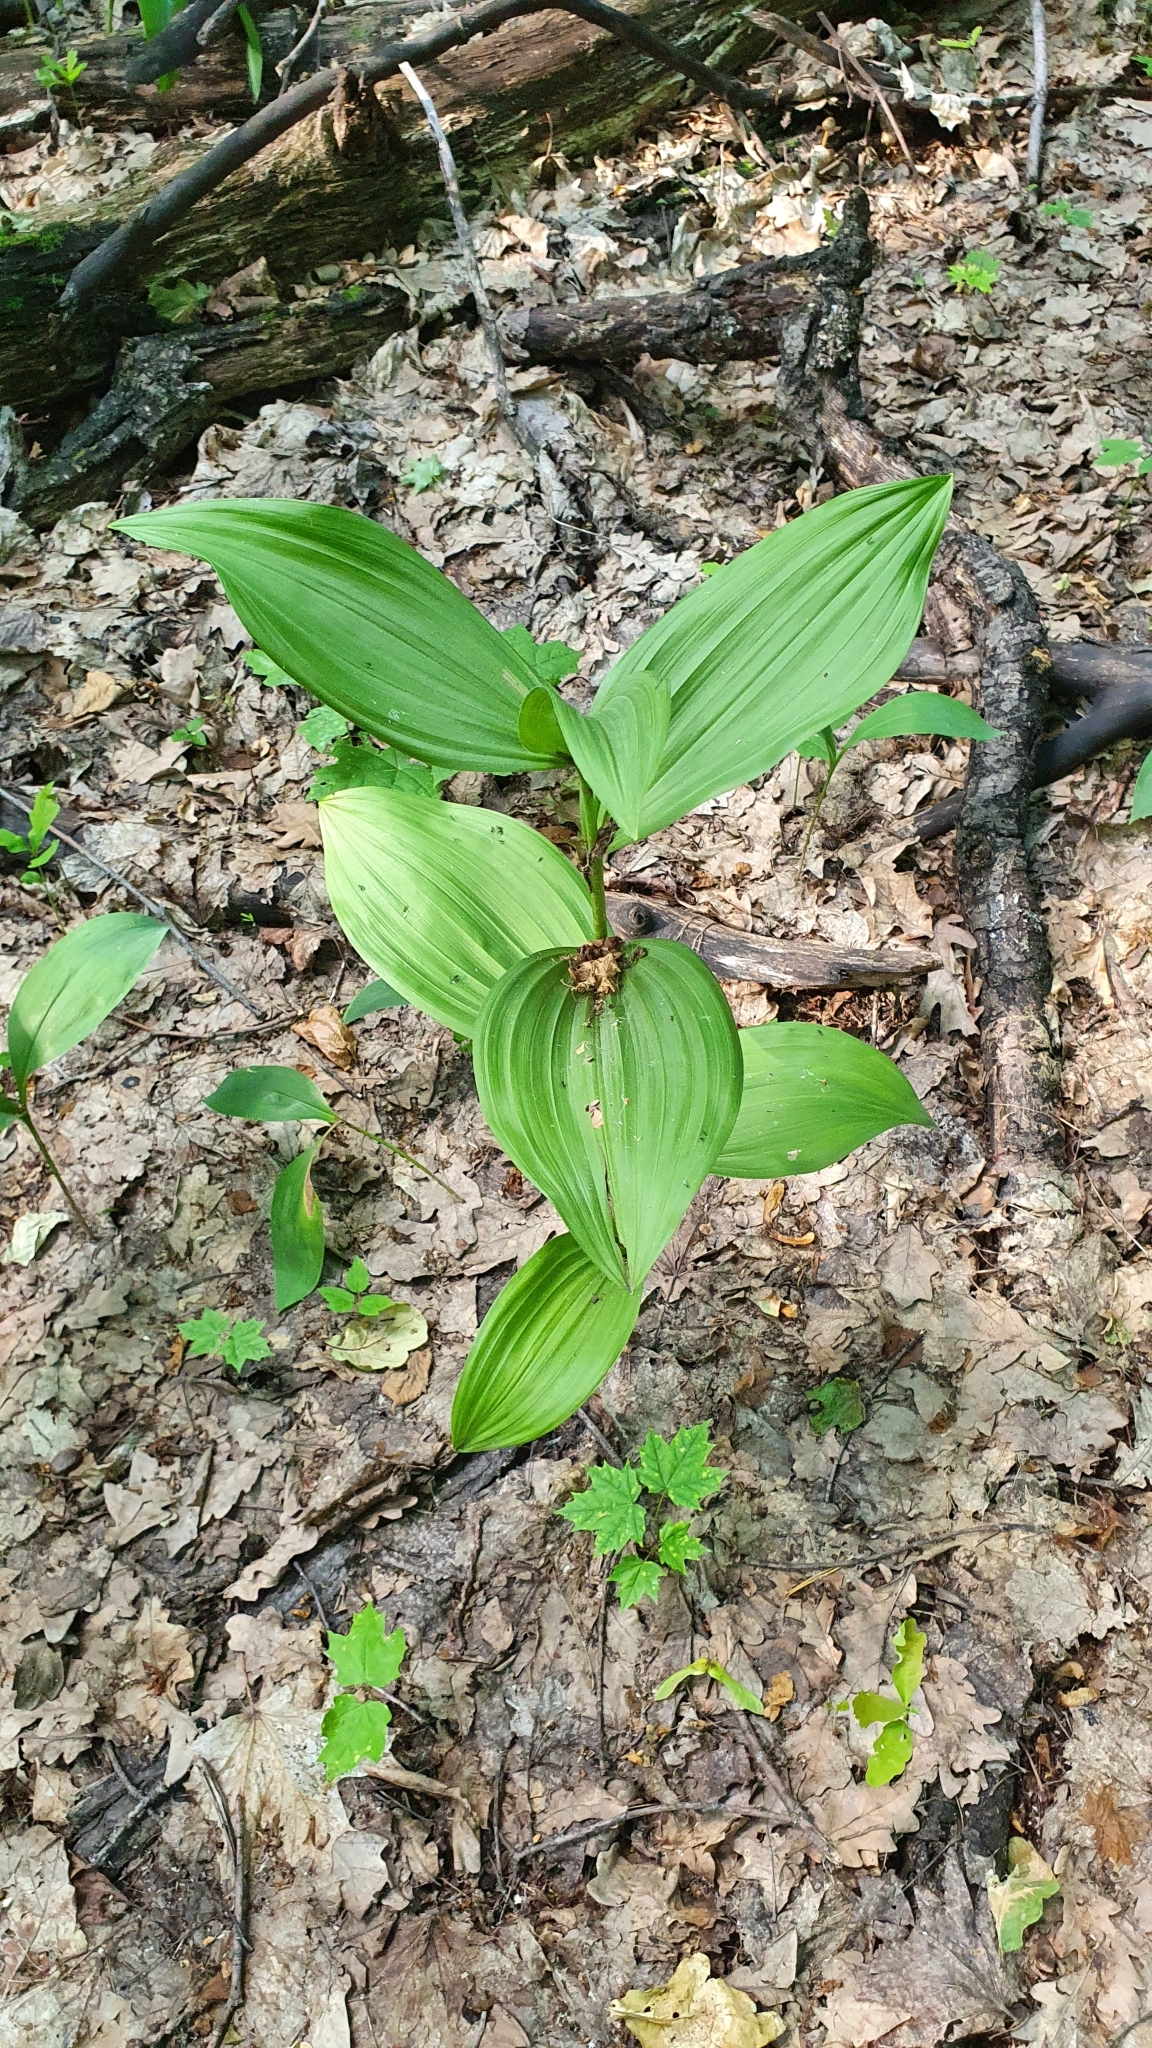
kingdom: Plantae
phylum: Tracheophyta
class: Liliopsida
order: Liliales
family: Melanthiaceae
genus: Veratrum
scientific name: Veratrum lobelianum
